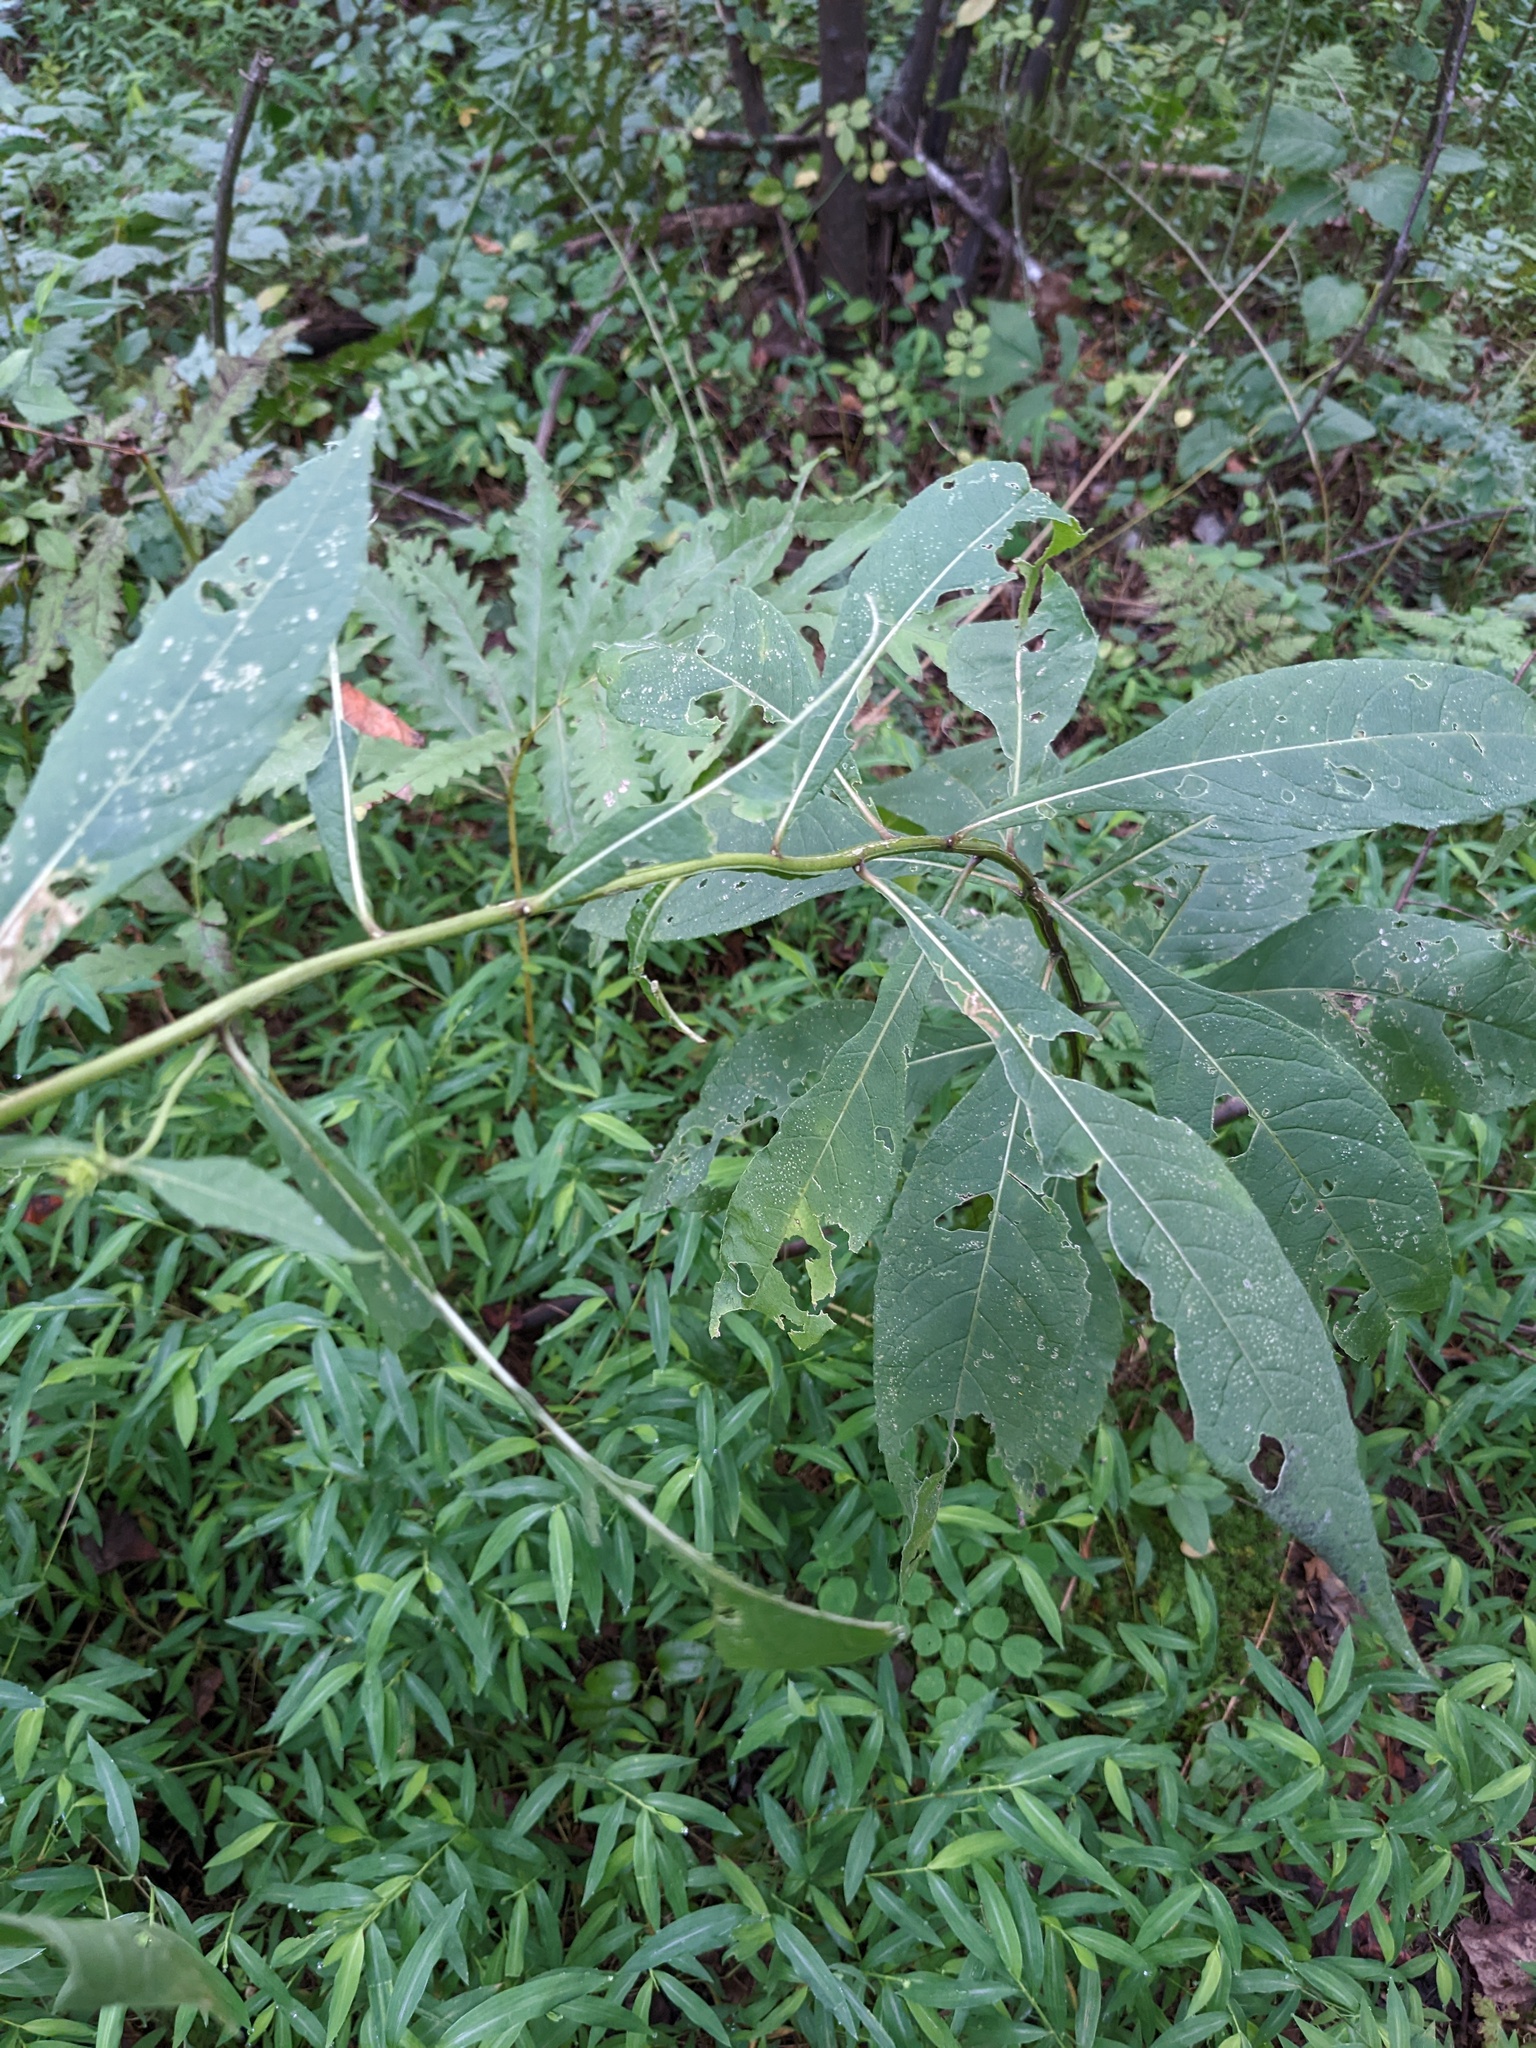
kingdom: Plantae
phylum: Tracheophyta
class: Magnoliopsida
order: Asterales
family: Asteraceae
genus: Verbesina
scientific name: Verbesina alternifolia
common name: Wingstem
